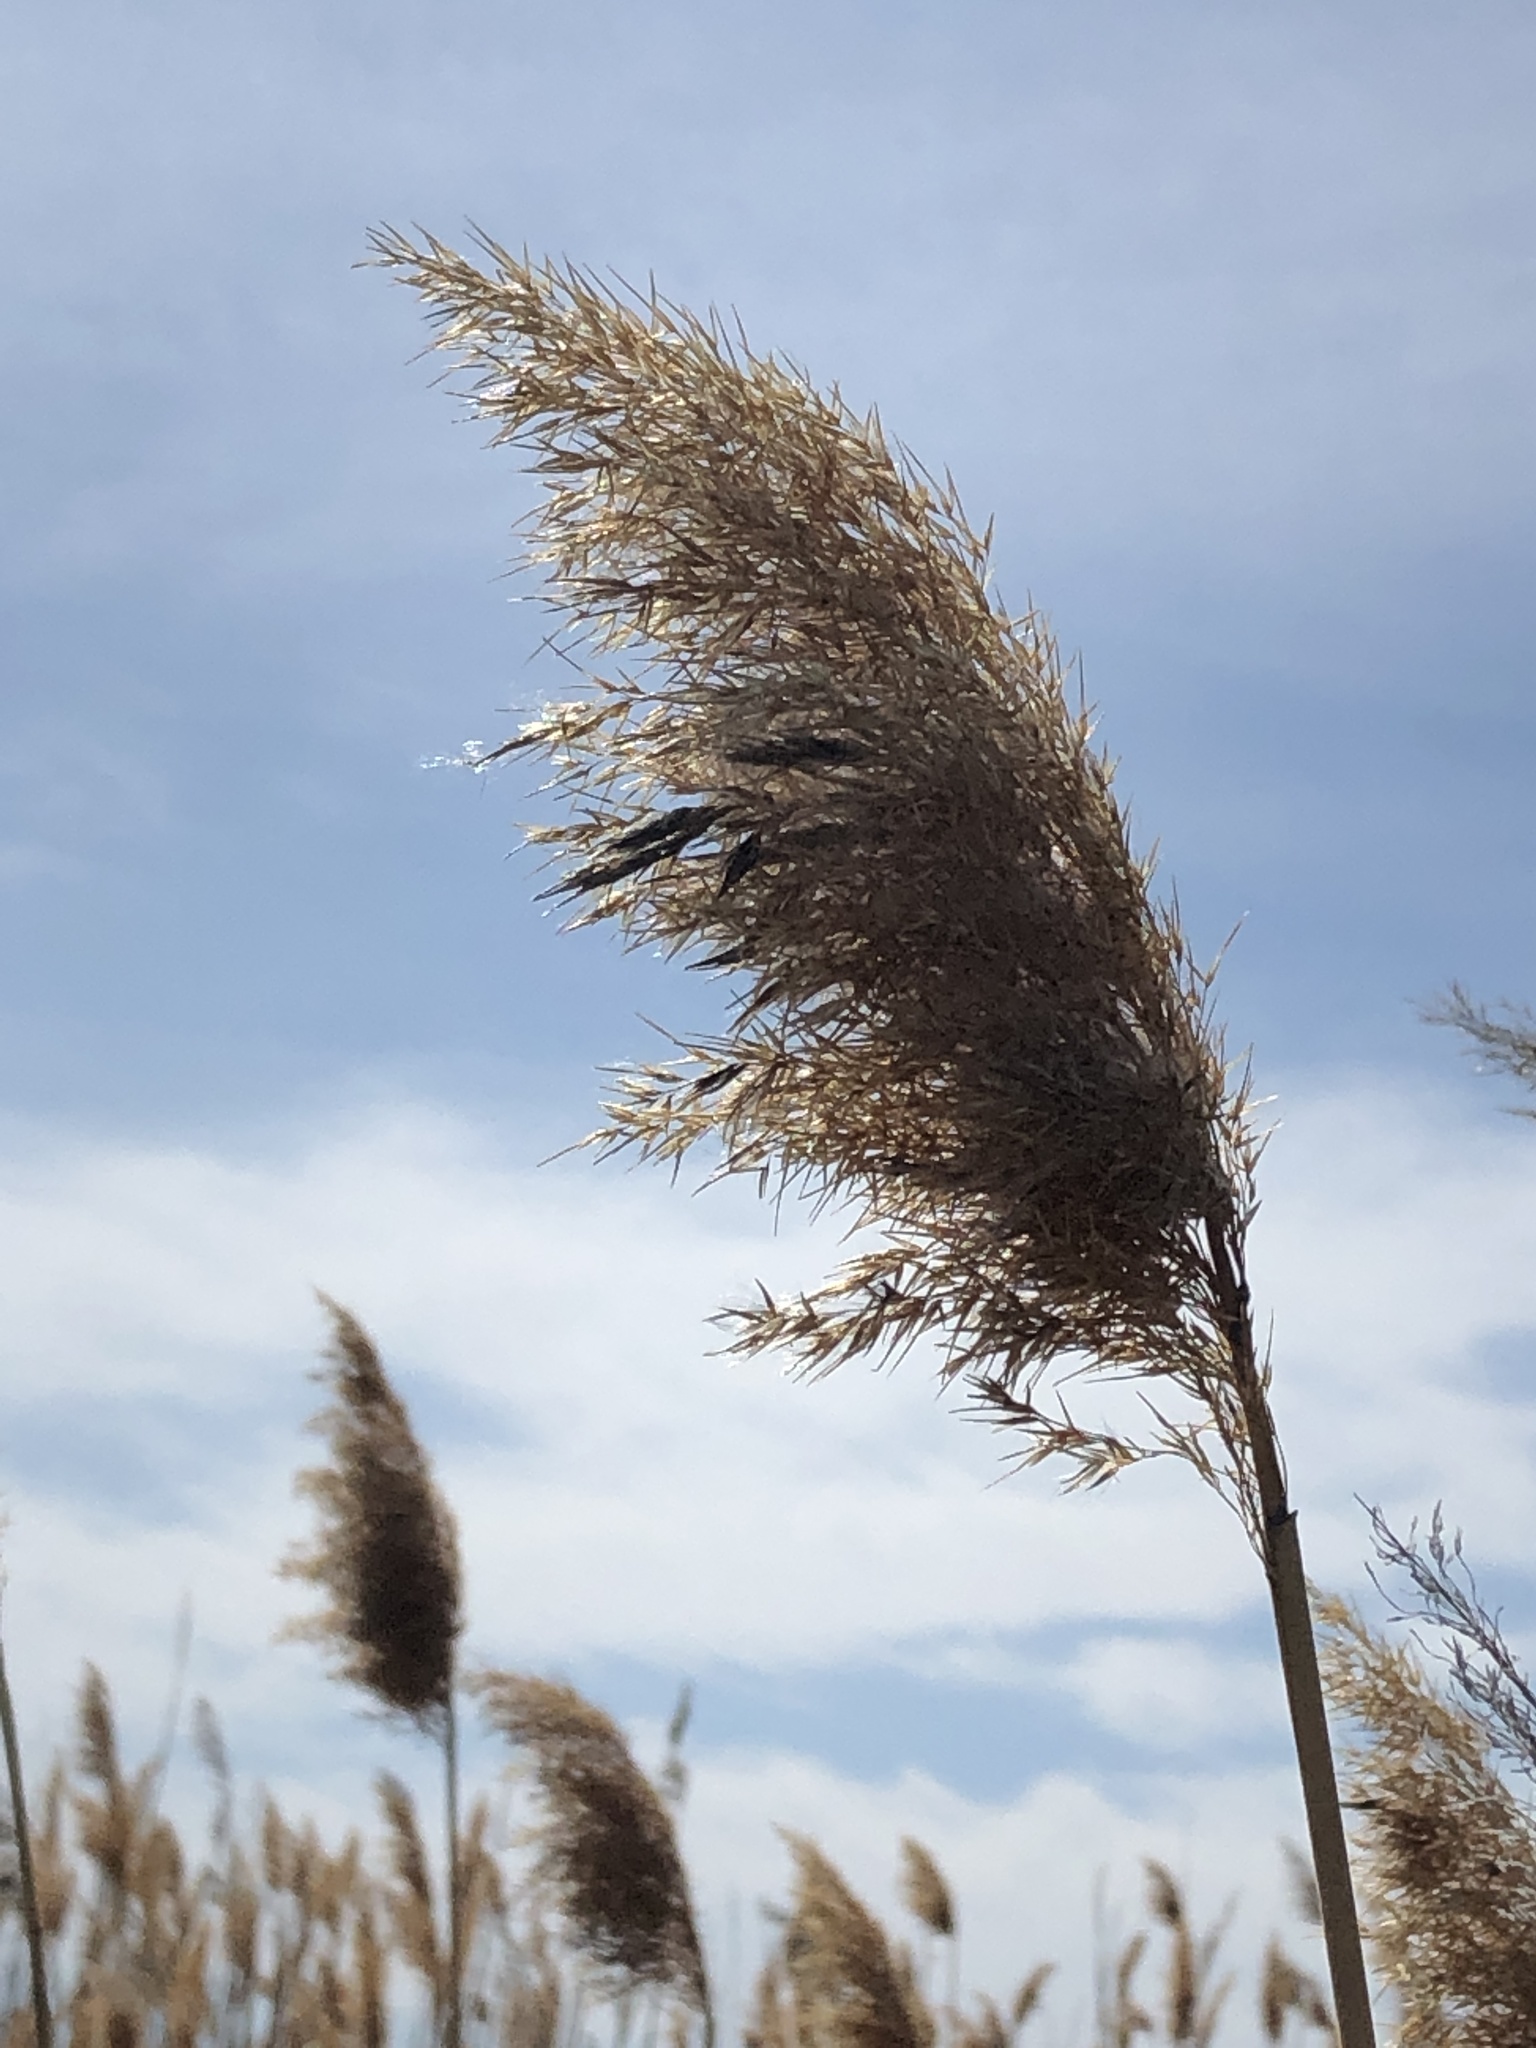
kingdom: Plantae
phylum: Tracheophyta
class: Liliopsida
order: Poales
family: Poaceae
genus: Phragmites
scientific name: Phragmites australis
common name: Common reed
